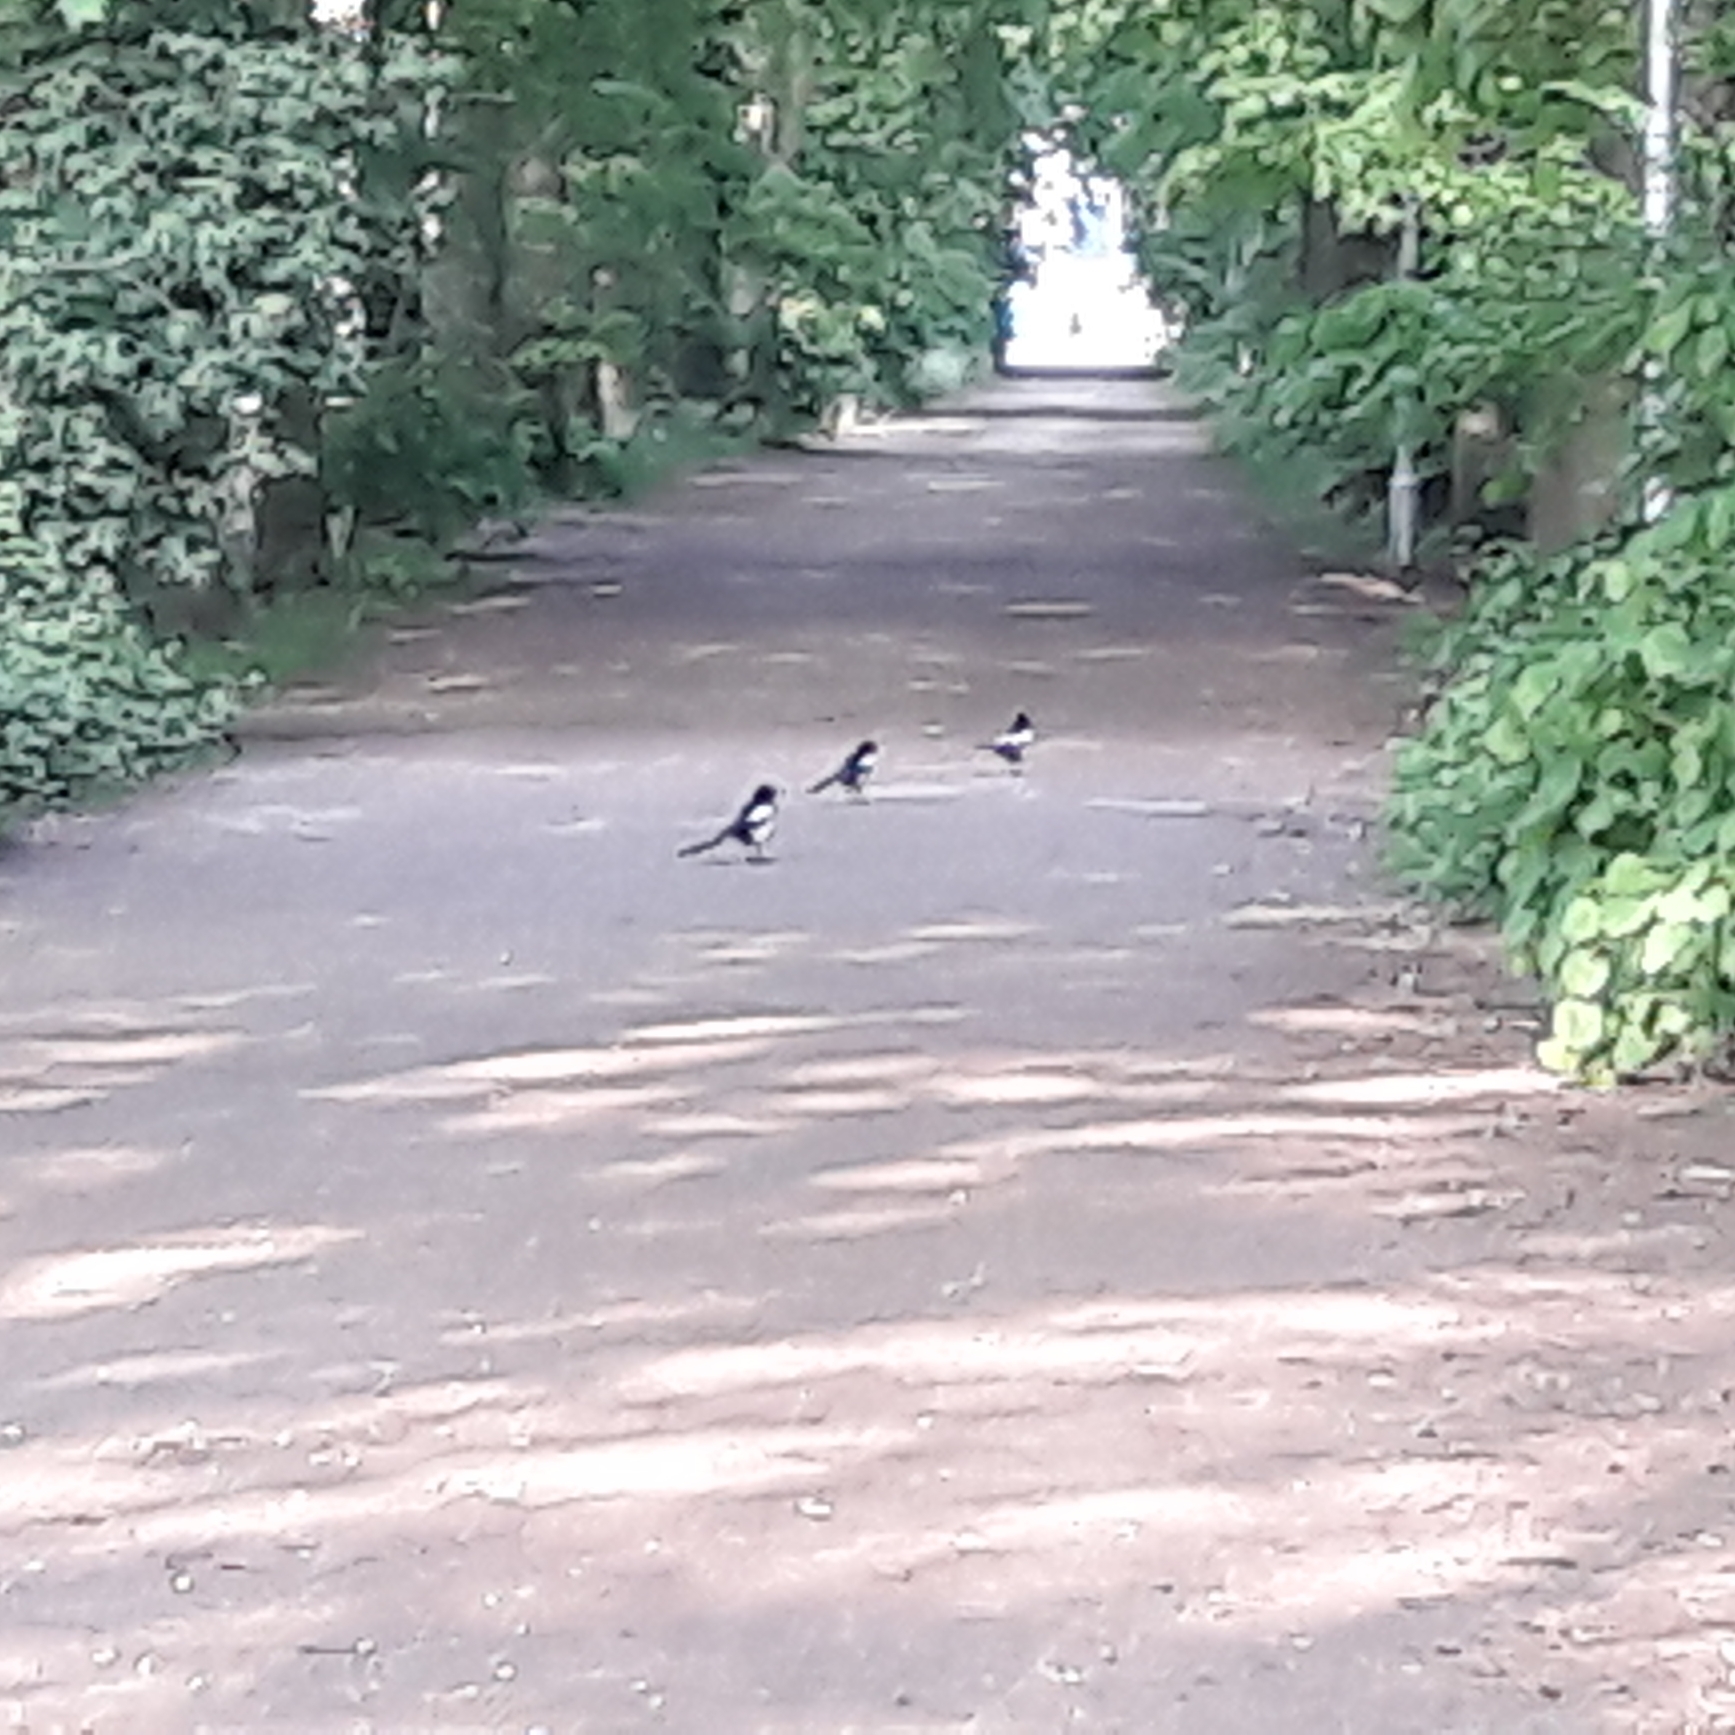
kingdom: Animalia
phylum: Chordata
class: Aves
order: Passeriformes
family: Corvidae
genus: Pica
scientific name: Pica pica
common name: Eurasian magpie
